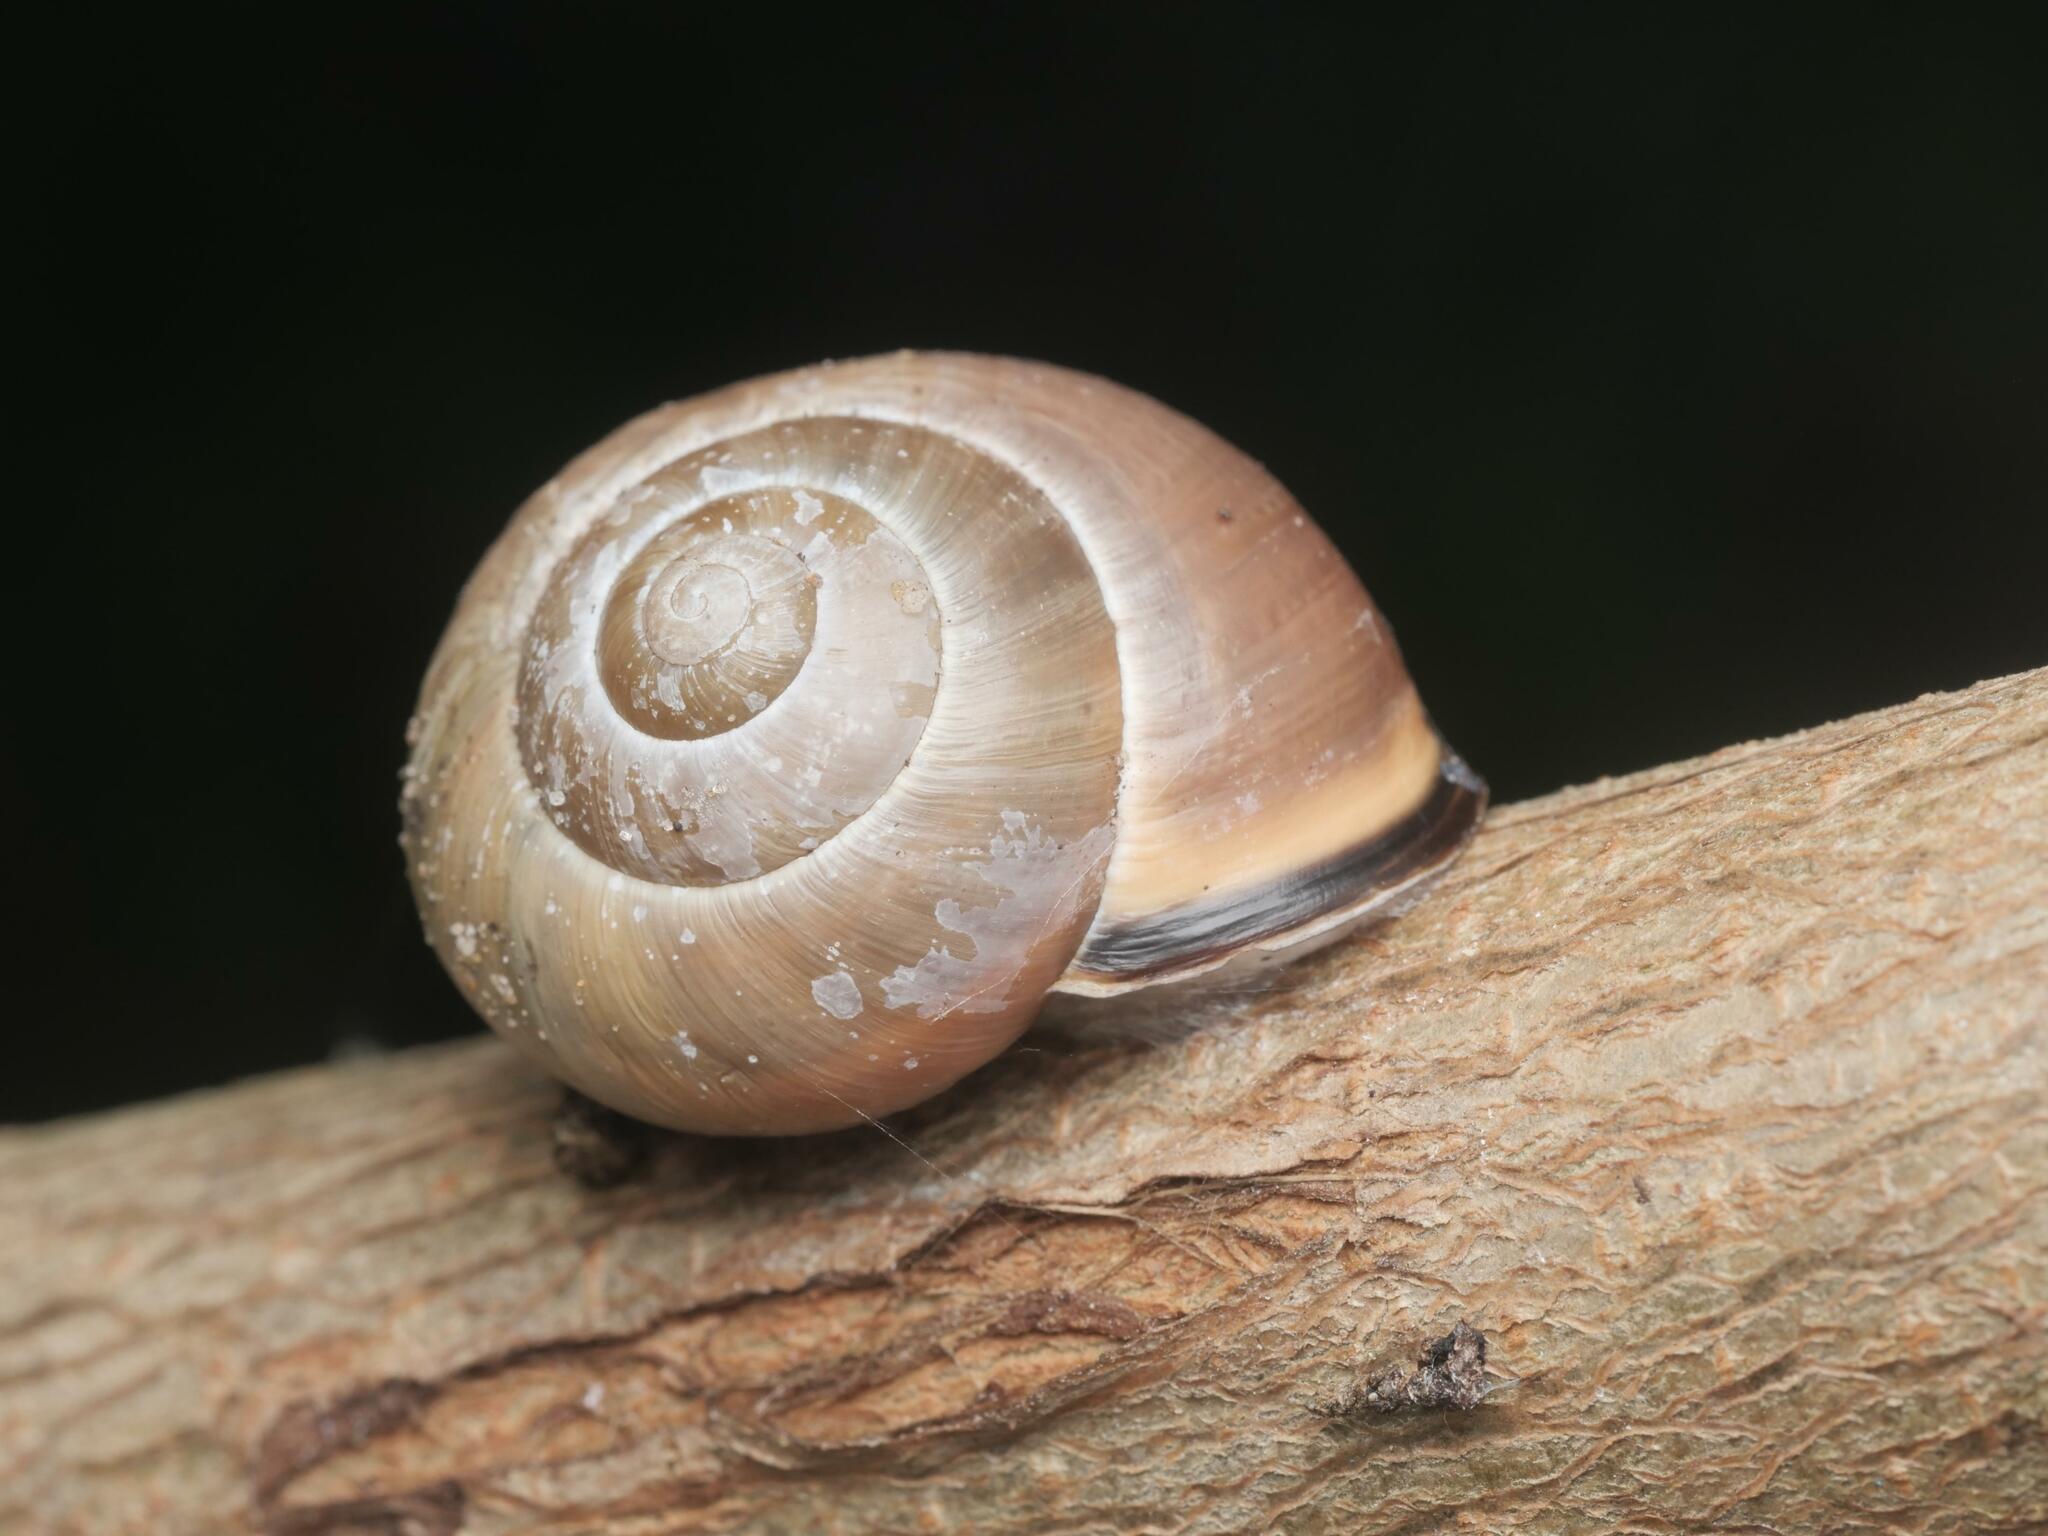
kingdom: Animalia
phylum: Mollusca
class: Gastropoda
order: Stylommatophora
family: Helicidae
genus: Cepaea
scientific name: Cepaea nemoralis
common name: Grovesnail
